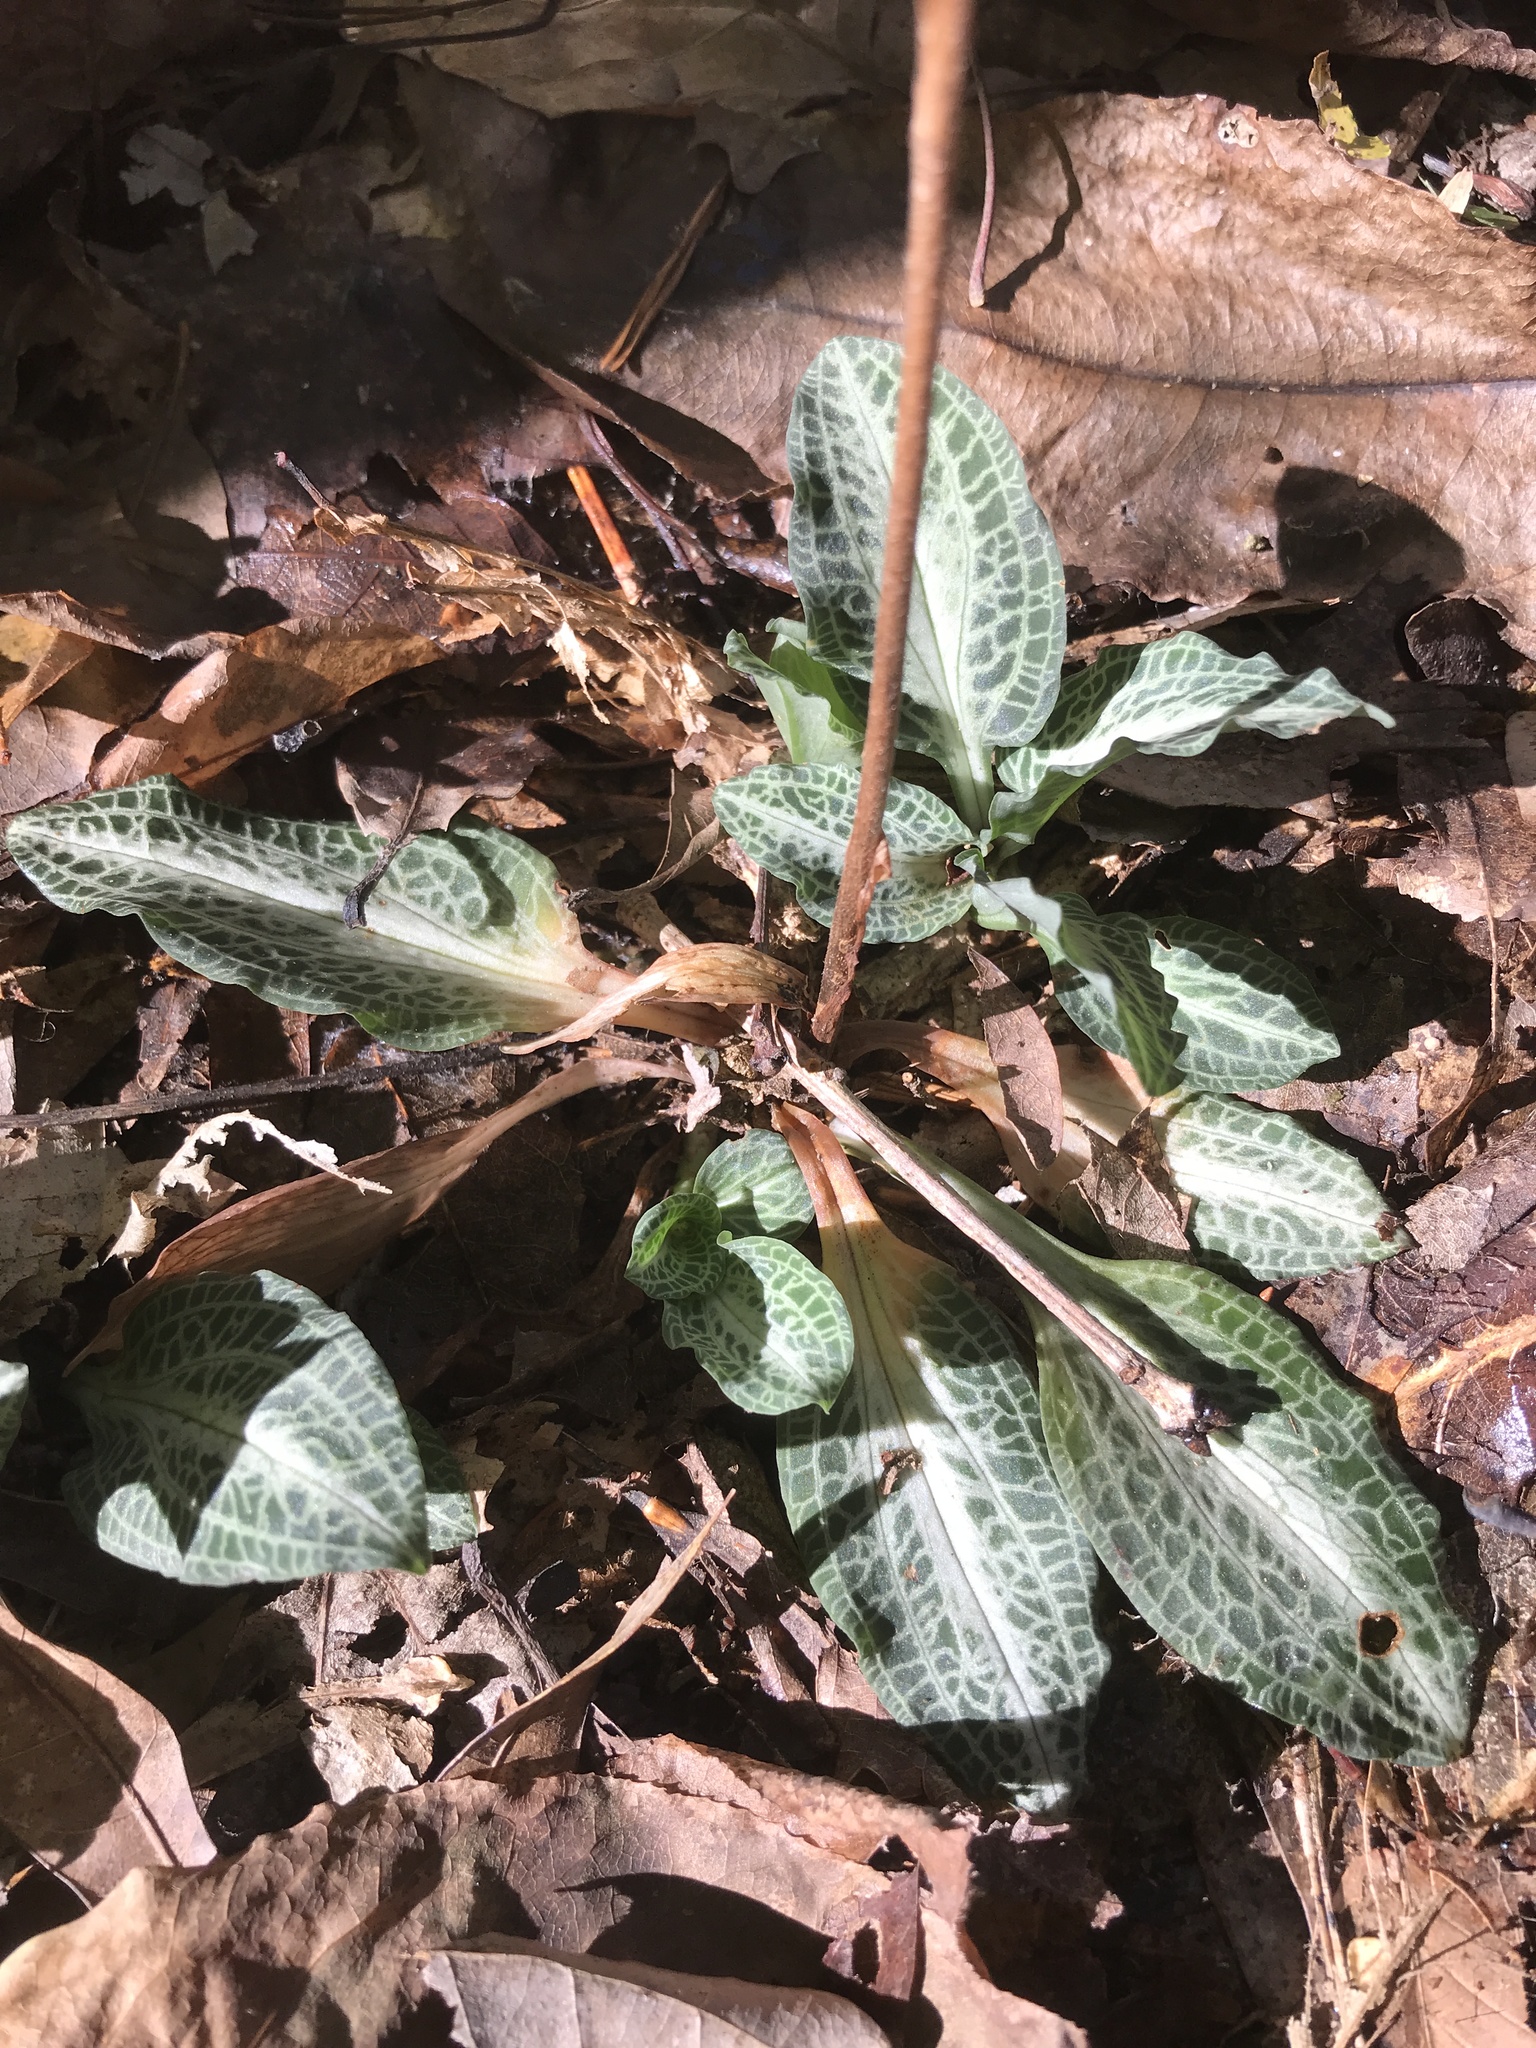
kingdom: Plantae
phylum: Tracheophyta
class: Liliopsida
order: Asparagales
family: Orchidaceae
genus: Goodyera
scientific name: Goodyera pubescens
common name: Downy rattlesnake-plantain
